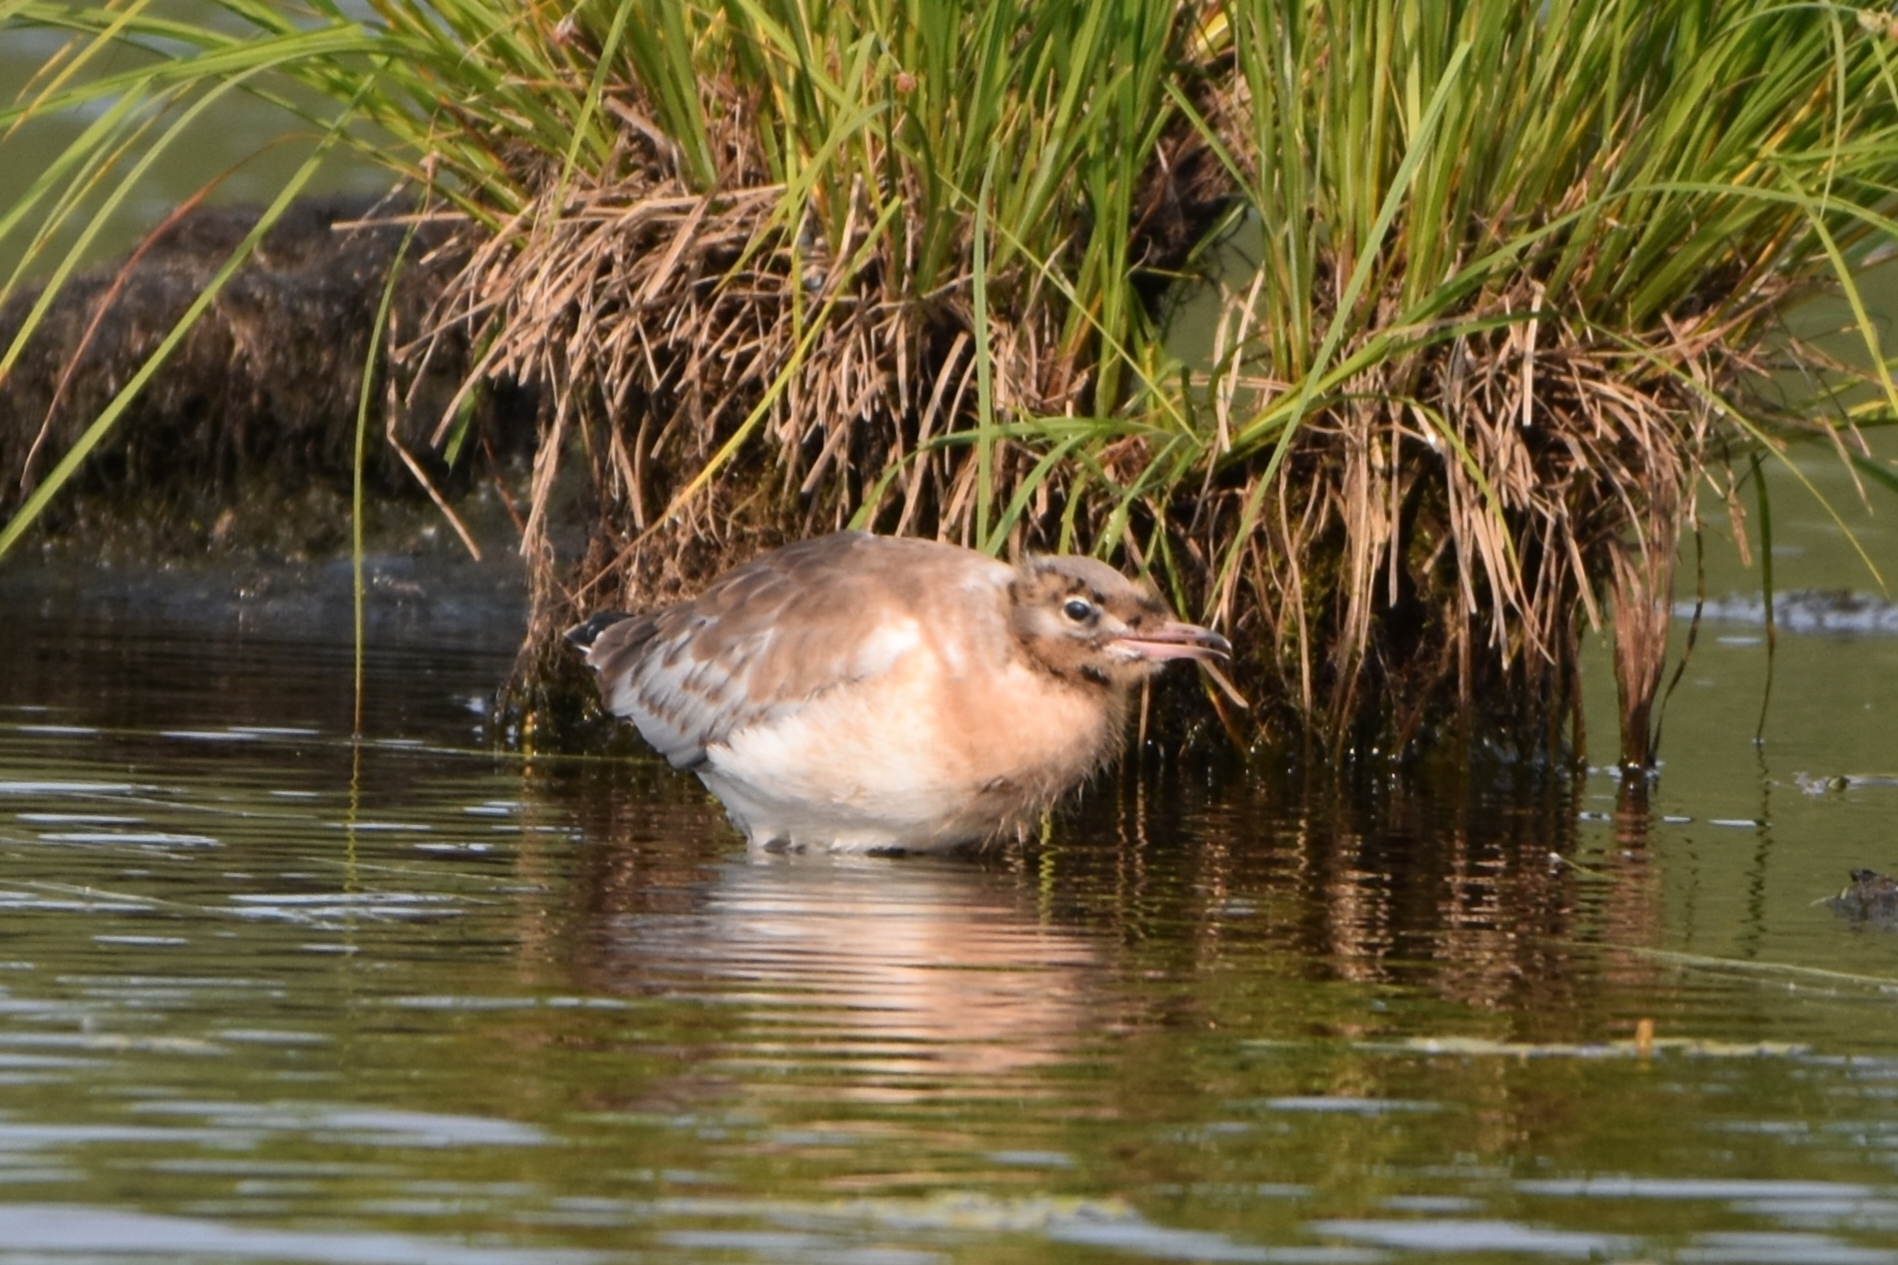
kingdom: Animalia
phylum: Chordata
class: Aves
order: Charadriiformes
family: Laridae
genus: Chroicocephalus
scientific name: Chroicocephalus ridibundus
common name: Black-headed gull
